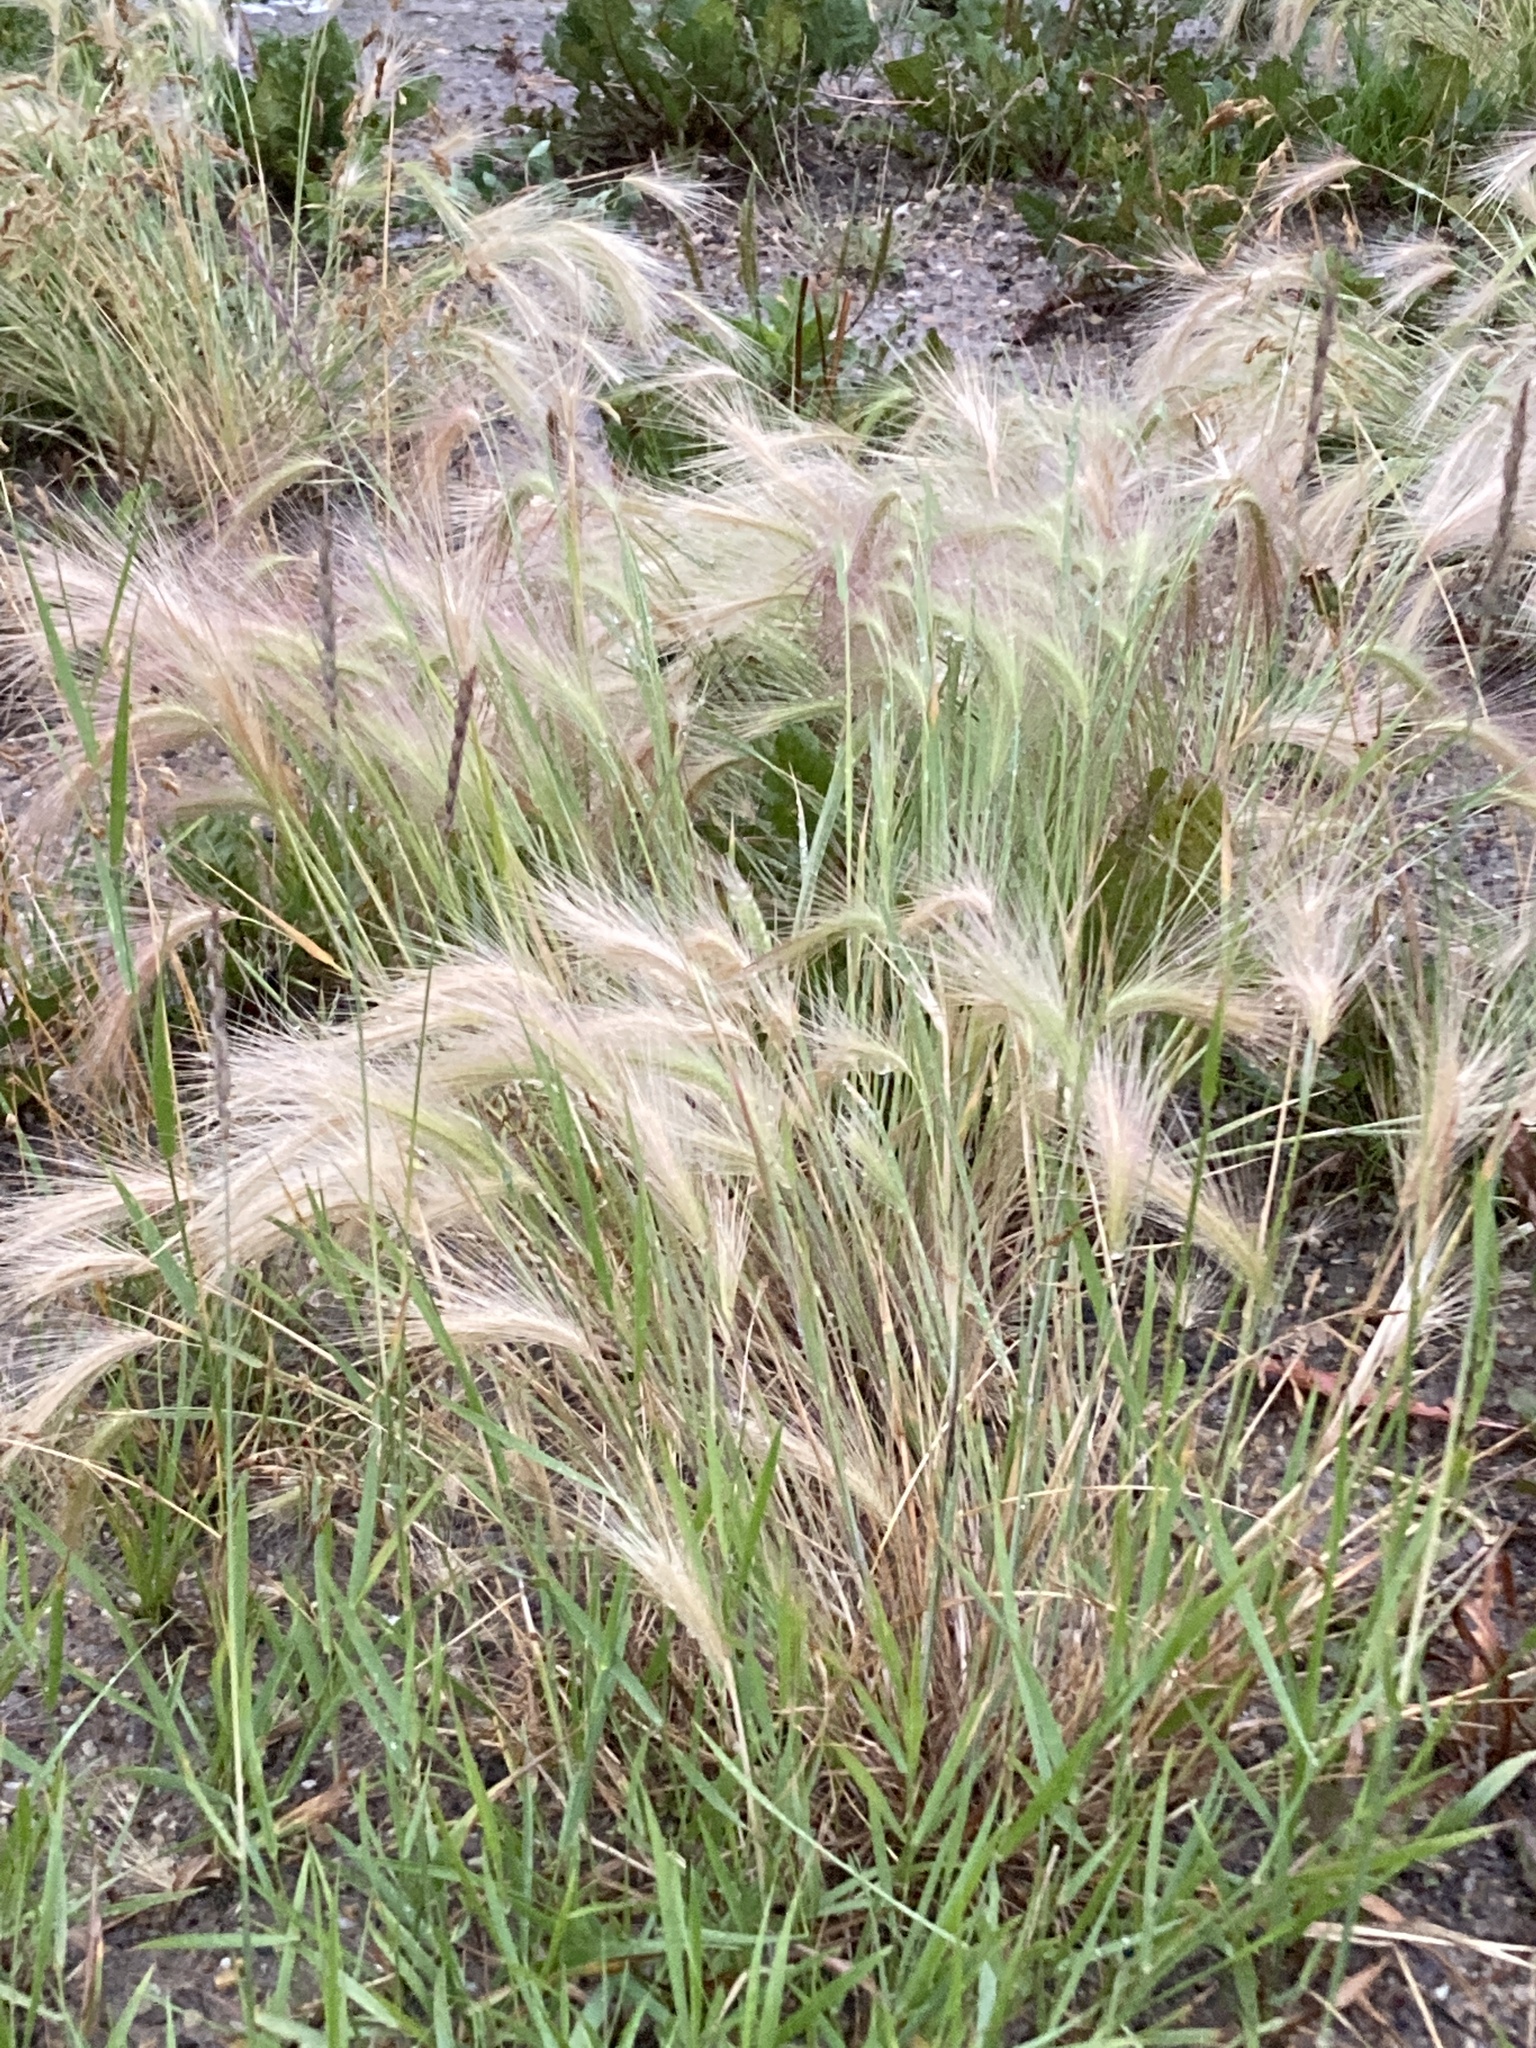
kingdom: Plantae
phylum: Tracheophyta
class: Liliopsida
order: Poales
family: Poaceae
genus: Hordeum
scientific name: Hordeum jubatum
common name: Foxtail barley
